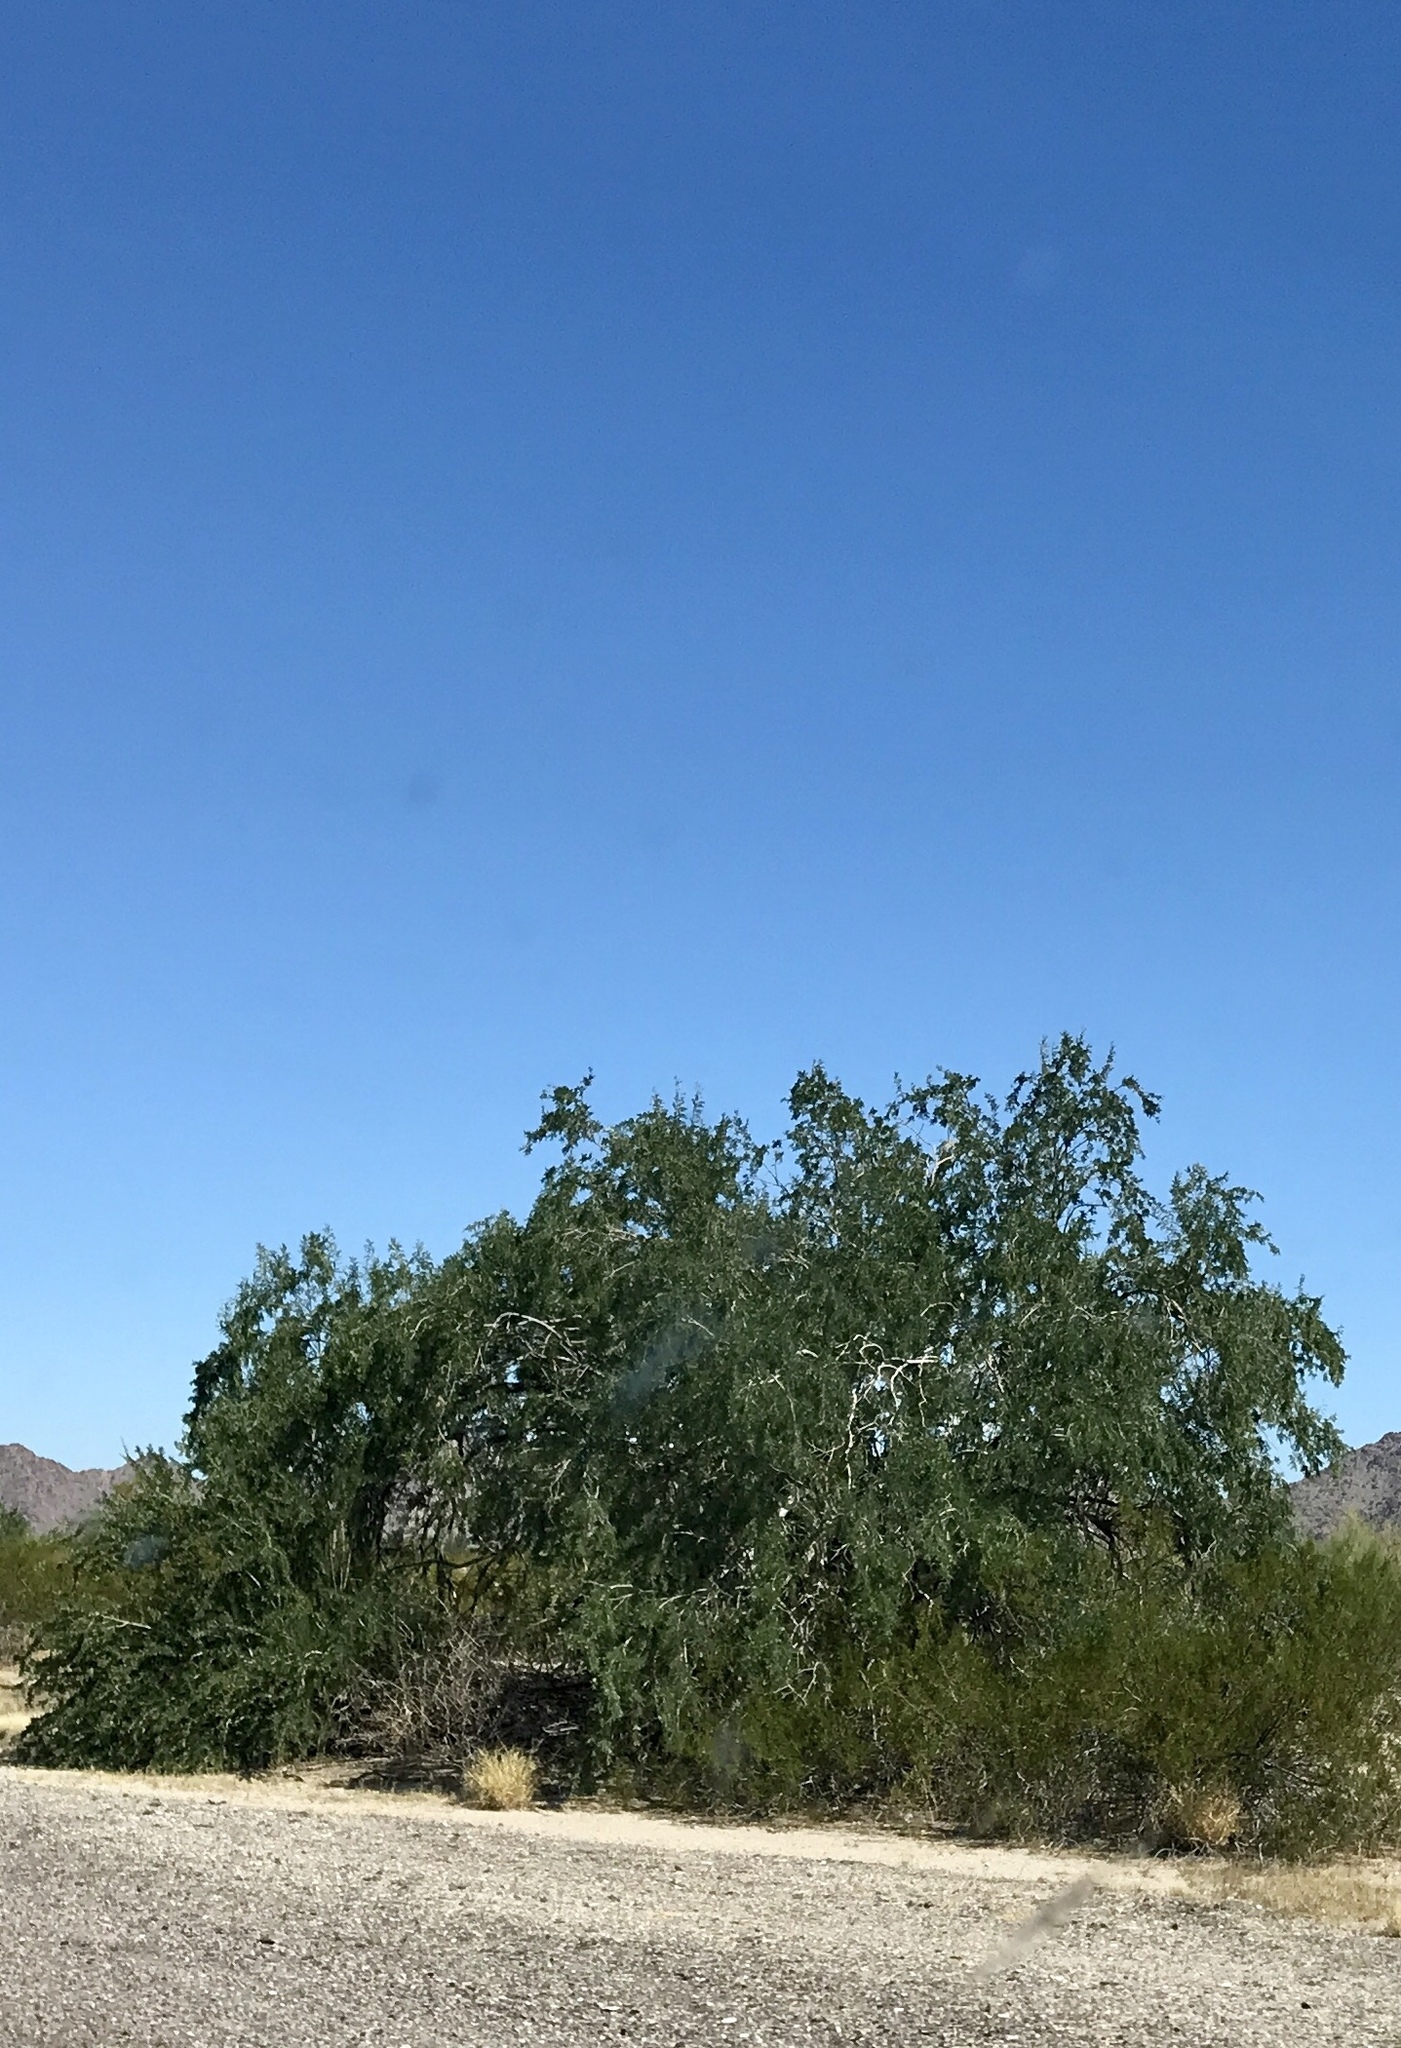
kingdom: Plantae
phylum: Tracheophyta
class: Magnoliopsida
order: Fabales
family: Fabaceae
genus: Olneya
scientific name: Olneya tesota
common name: Desert ironwood
